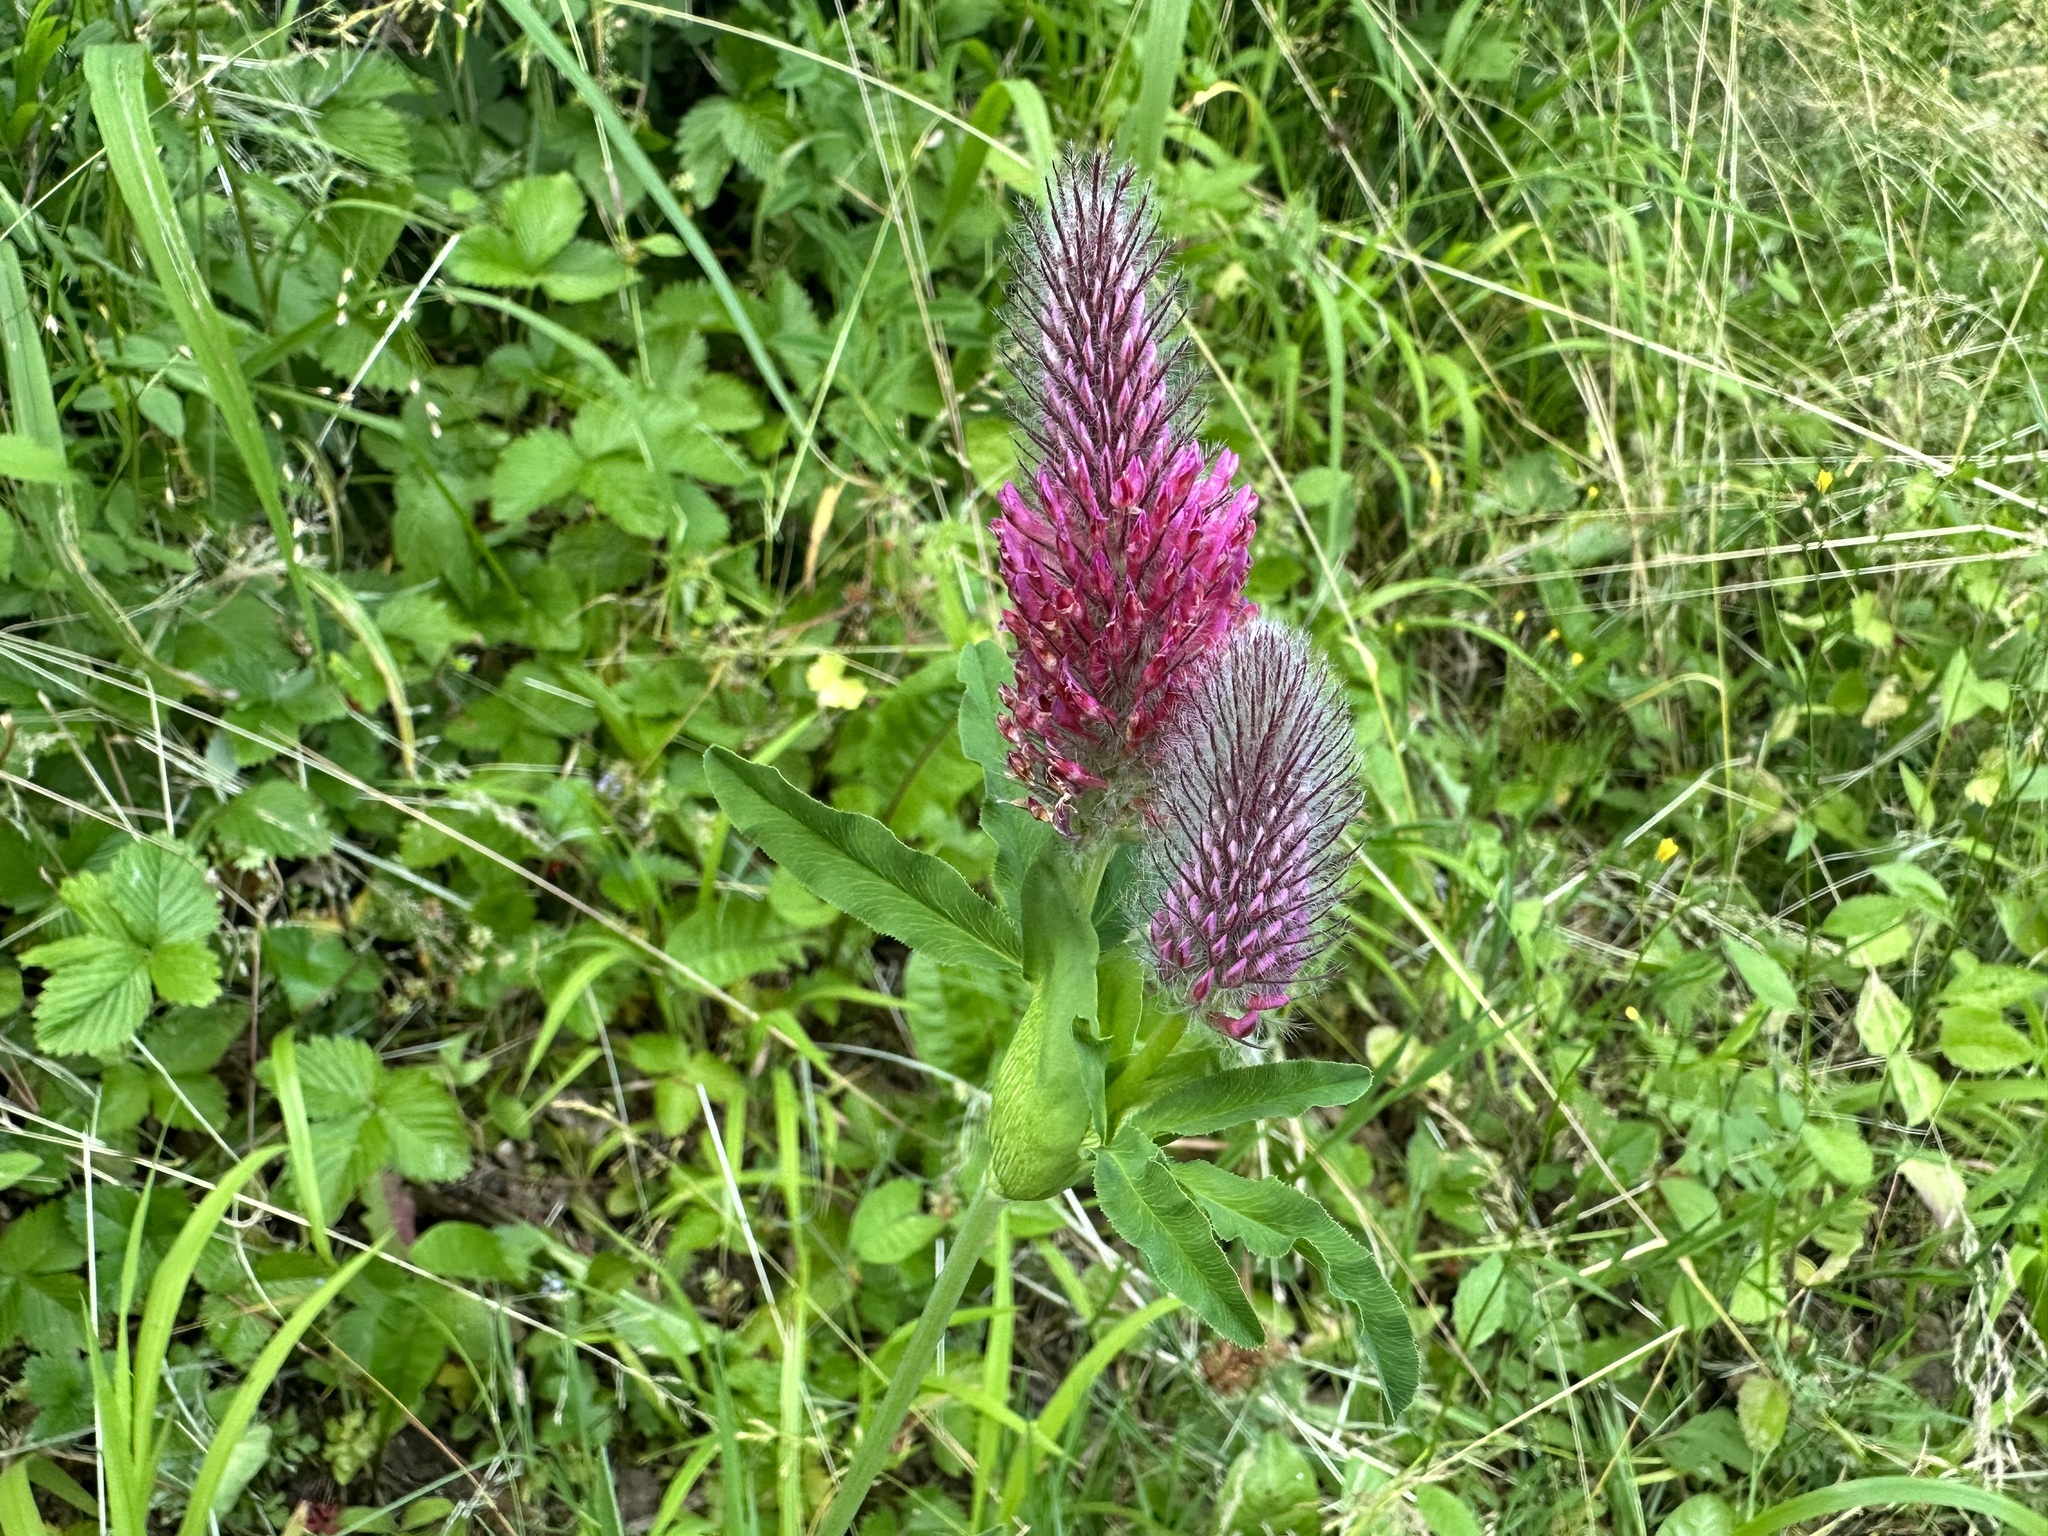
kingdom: Plantae
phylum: Tracheophyta
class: Magnoliopsida
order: Fabales
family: Fabaceae
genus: Trifolium
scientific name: Trifolium rubens
